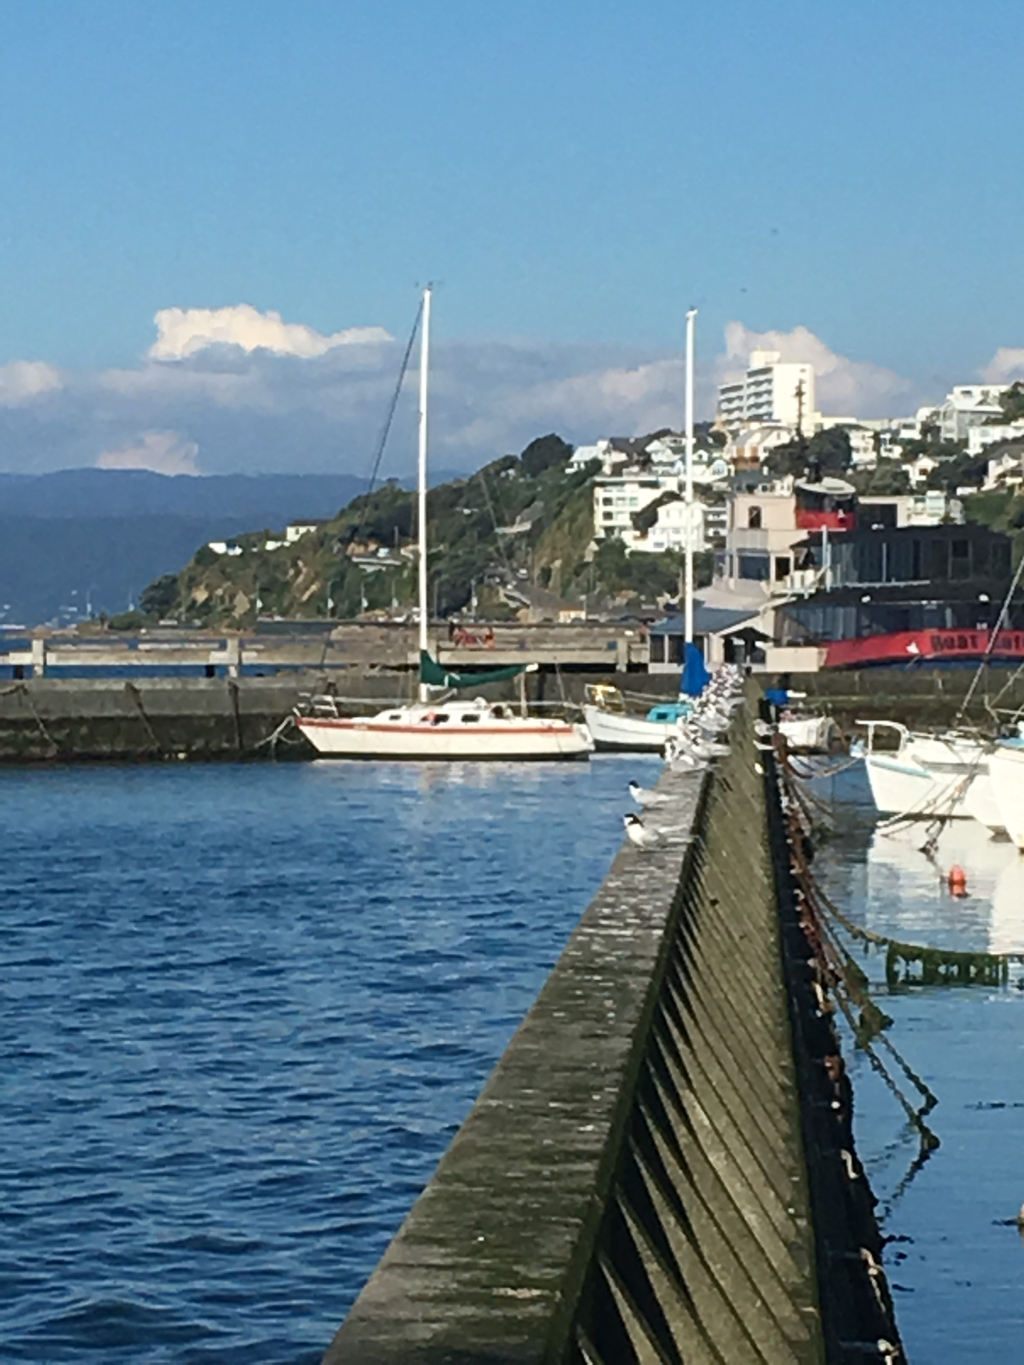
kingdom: Animalia
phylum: Chordata
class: Aves
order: Charadriiformes
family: Laridae
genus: Sterna
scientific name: Sterna striata
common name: White-fronted tern
